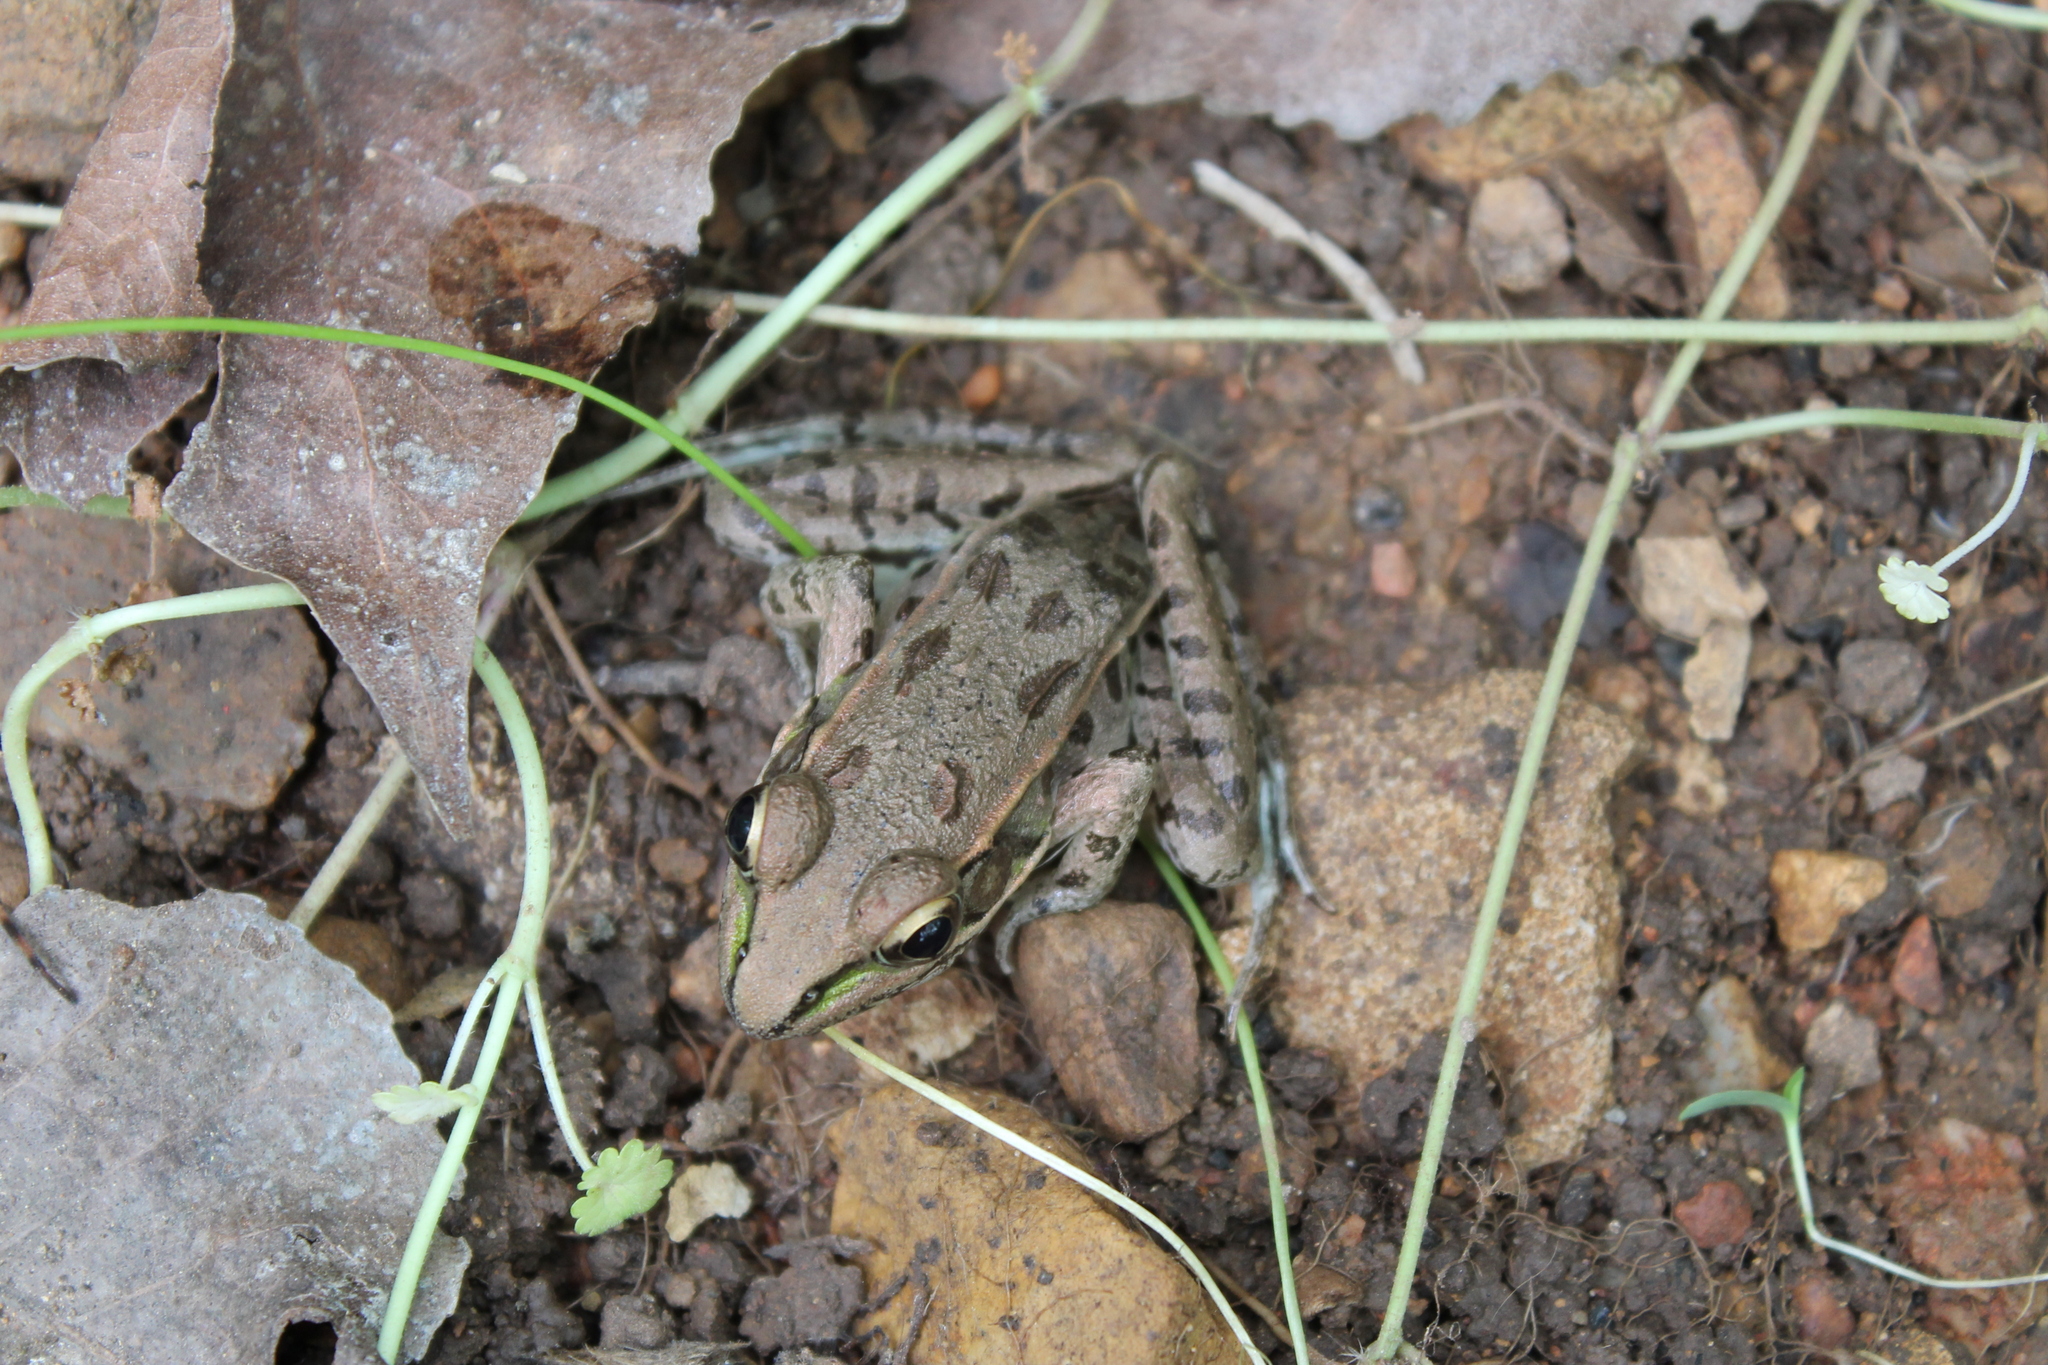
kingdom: Animalia
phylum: Chordata
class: Amphibia
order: Anura
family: Ranidae
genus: Lithobates
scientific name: Lithobates sphenocephalus
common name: Southern leopard frog
